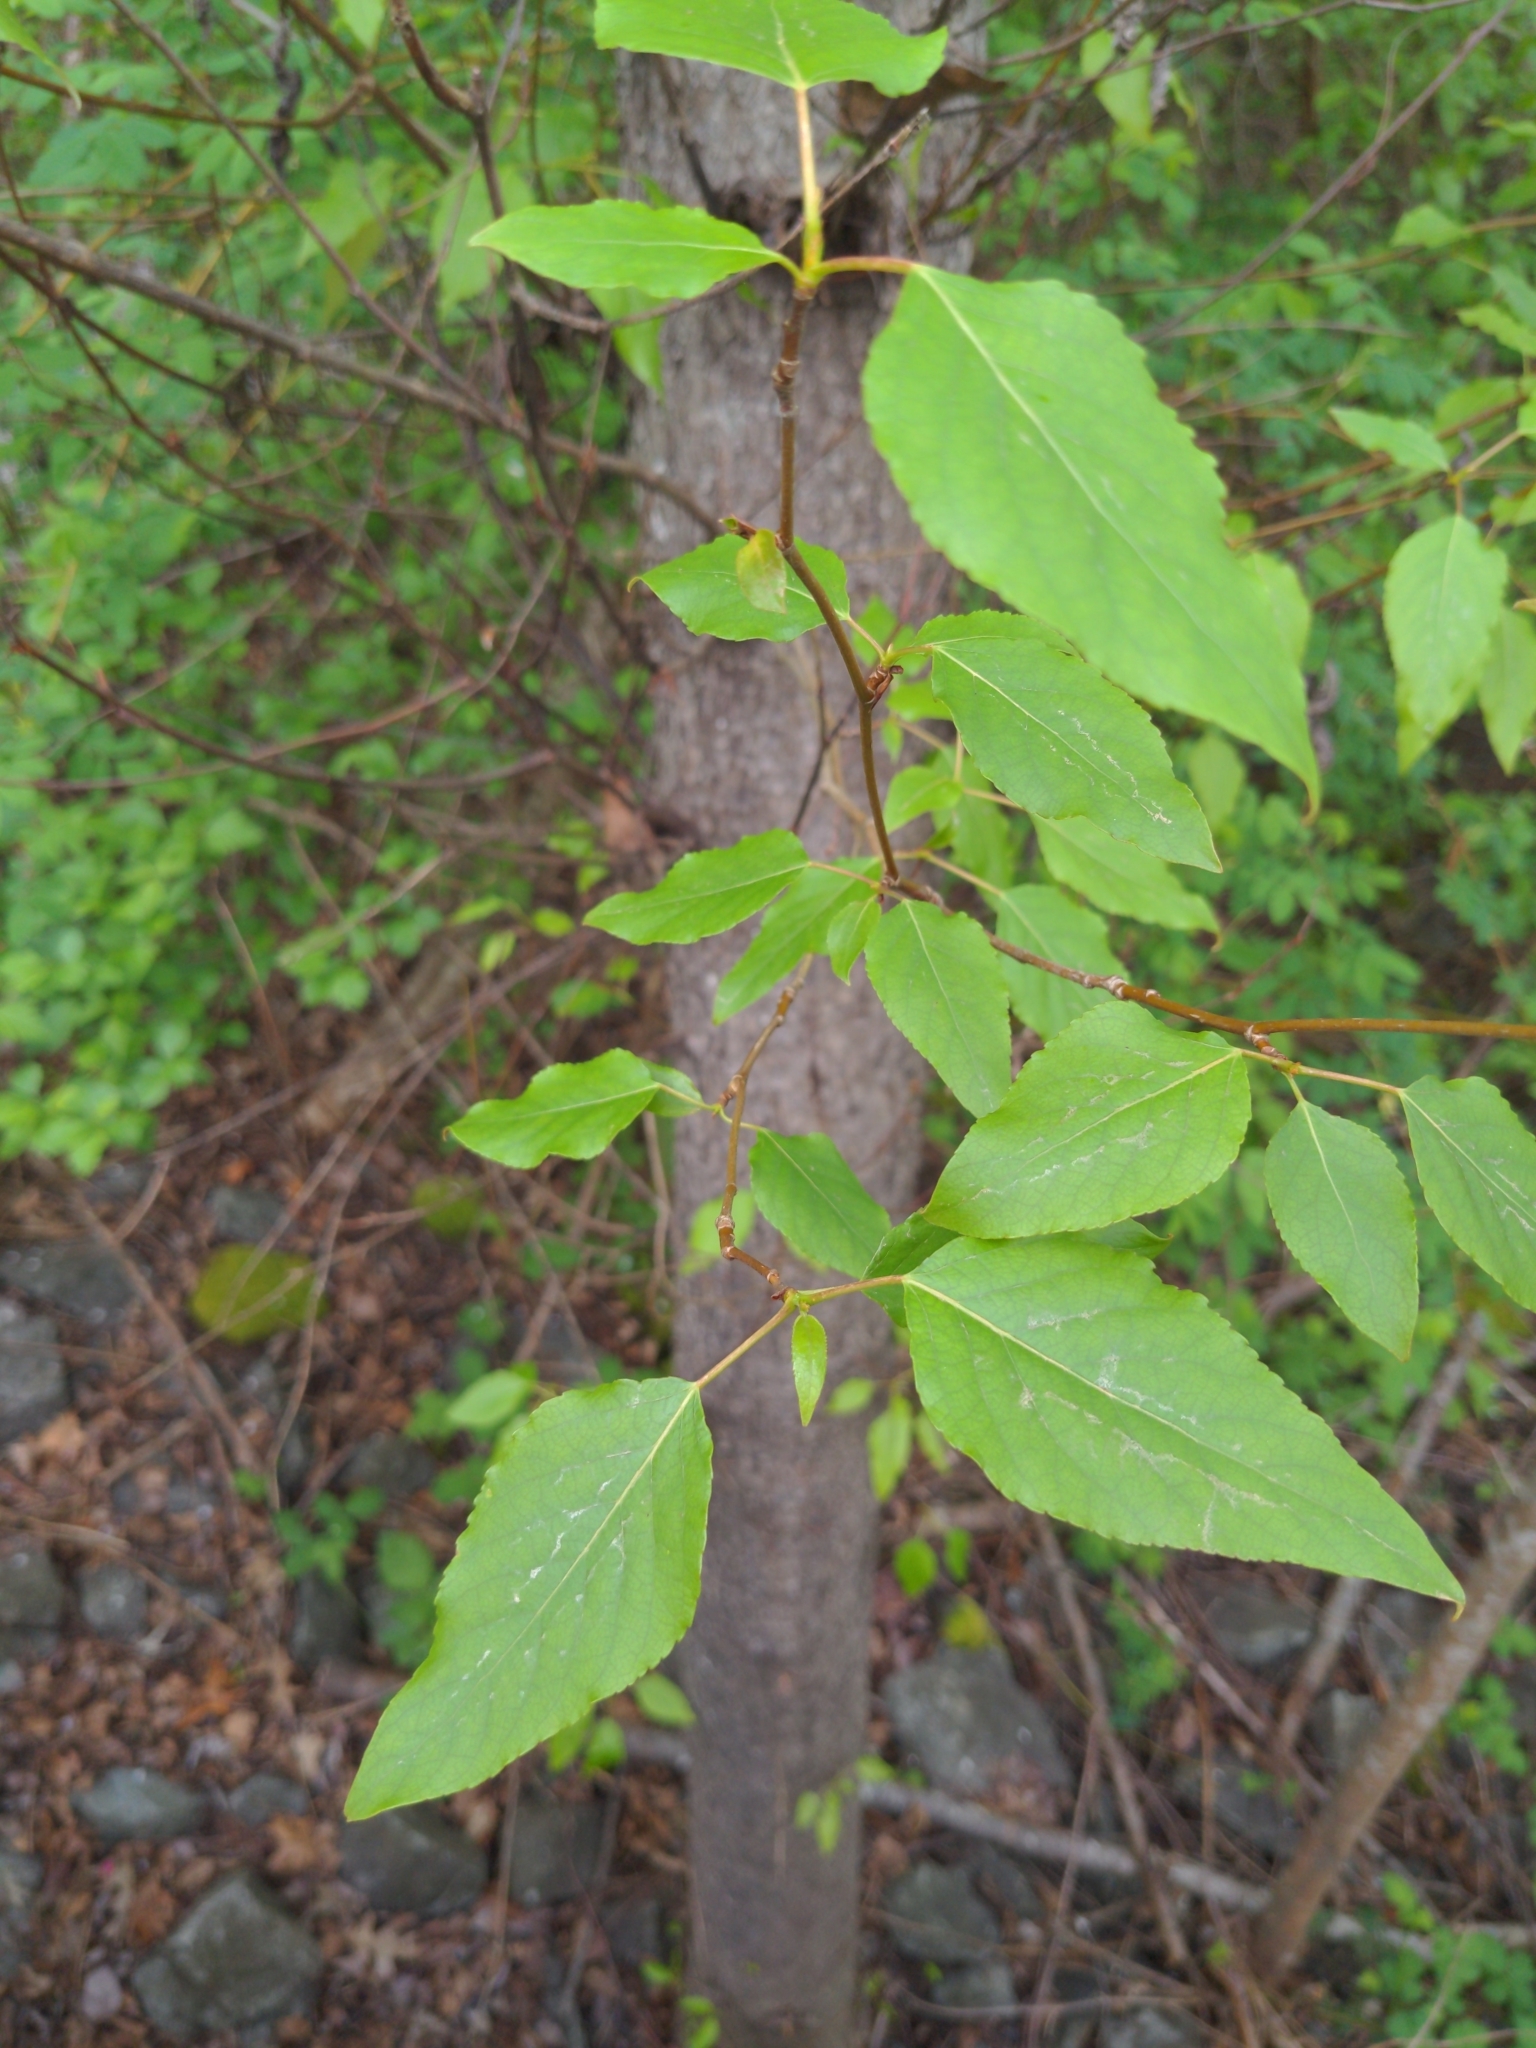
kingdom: Plantae
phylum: Tracheophyta
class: Magnoliopsida
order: Malpighiales
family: Salicaceae
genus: Populus
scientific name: Populus trichocarpa
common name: Black cottonwood
